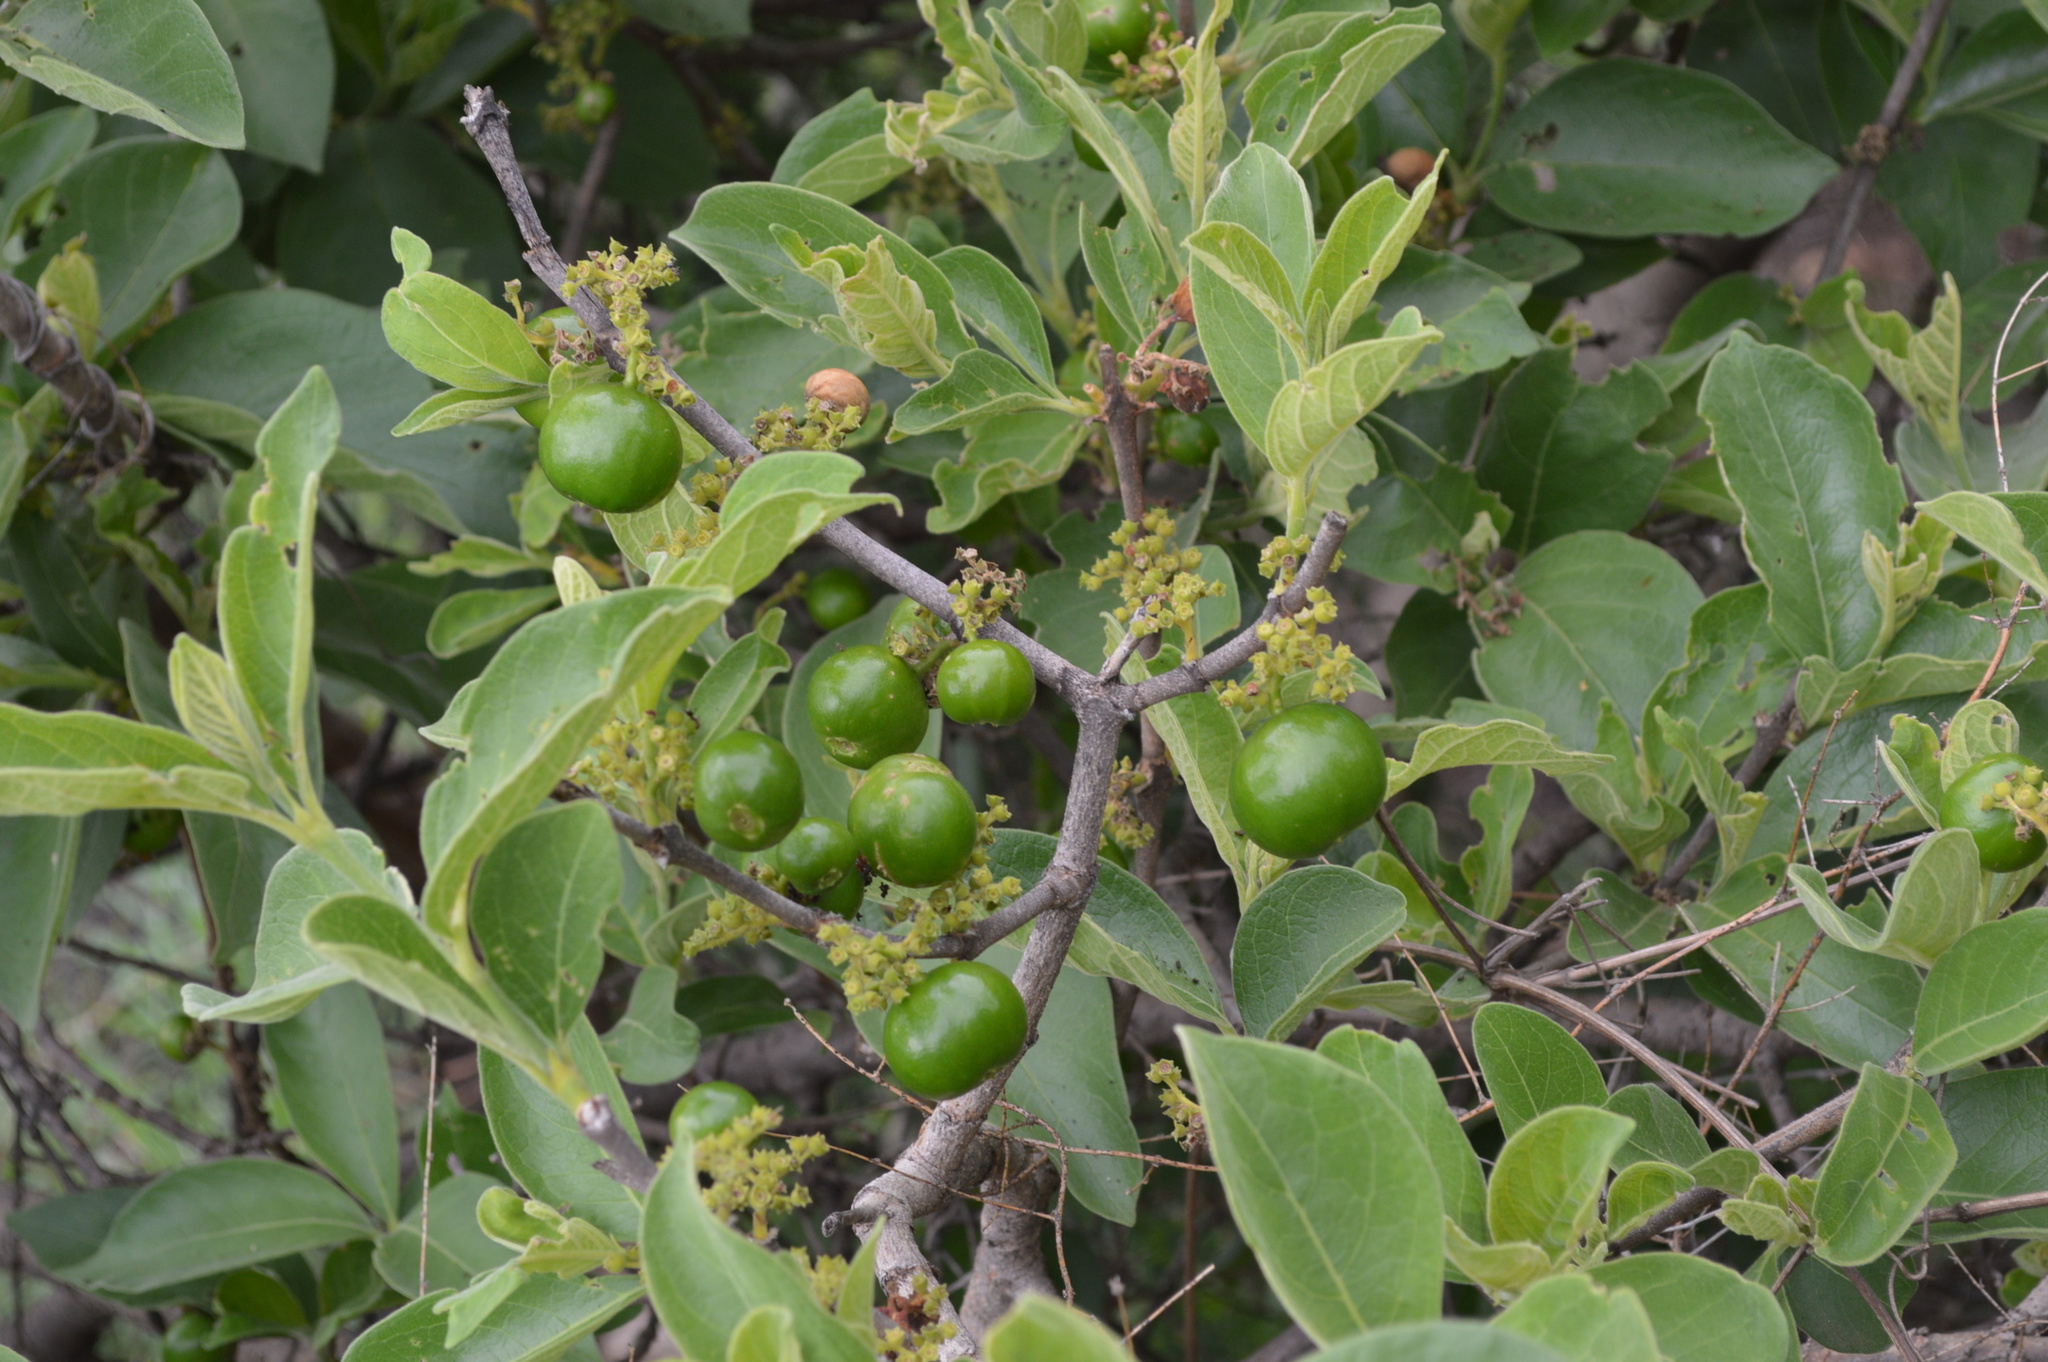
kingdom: Plantae
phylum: Tracheophyta
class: Magnoliopsida
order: Gentianales
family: Rubiaceae
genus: Vangueria
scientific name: Vangueria infausta
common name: Medlar
